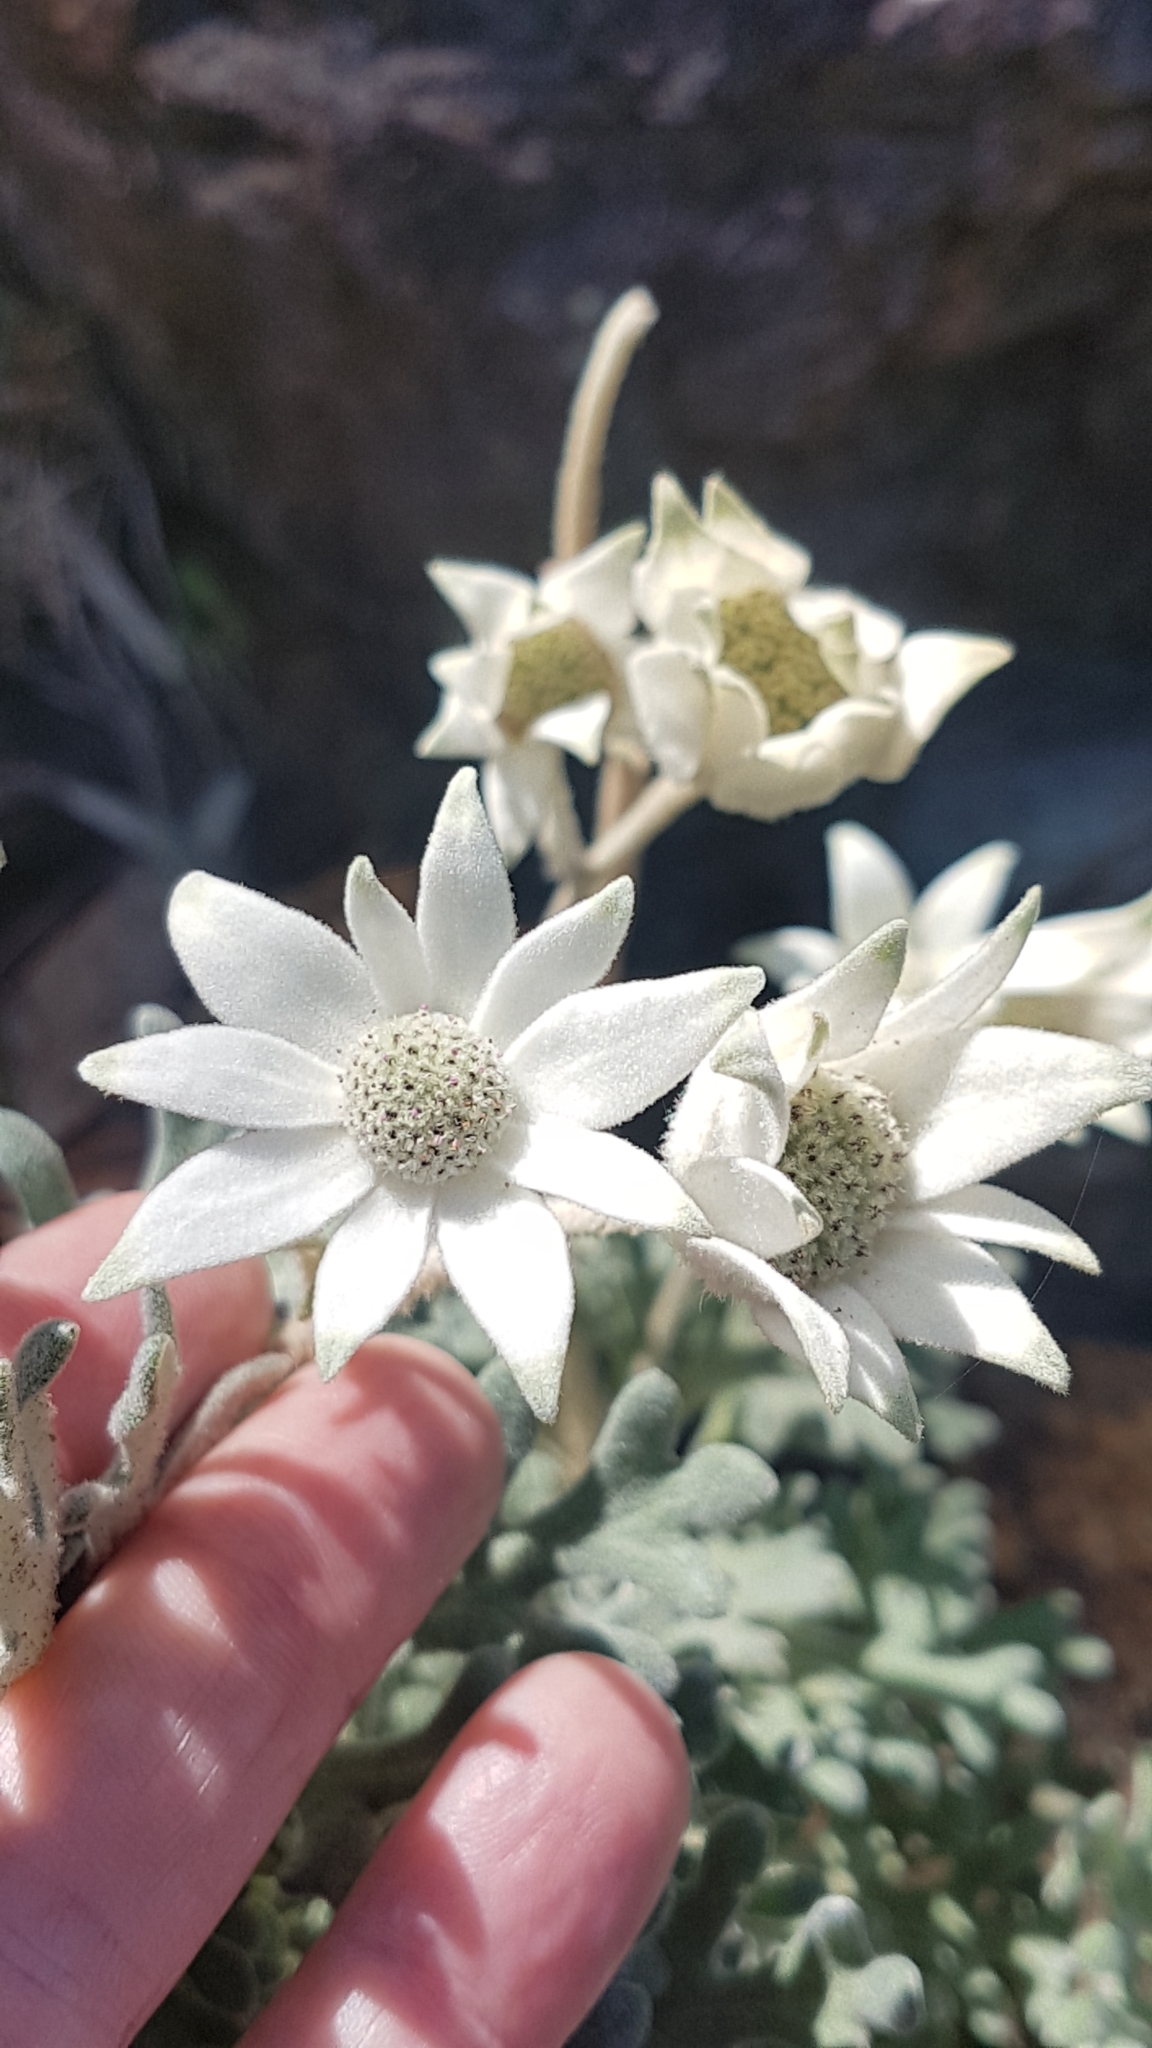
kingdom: Plantae
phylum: Tracheophyta
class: Magnoliopsida
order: Apiales
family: Apiaceae
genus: Actinotus
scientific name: Actinotus helianthi
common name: Flannel-flower
